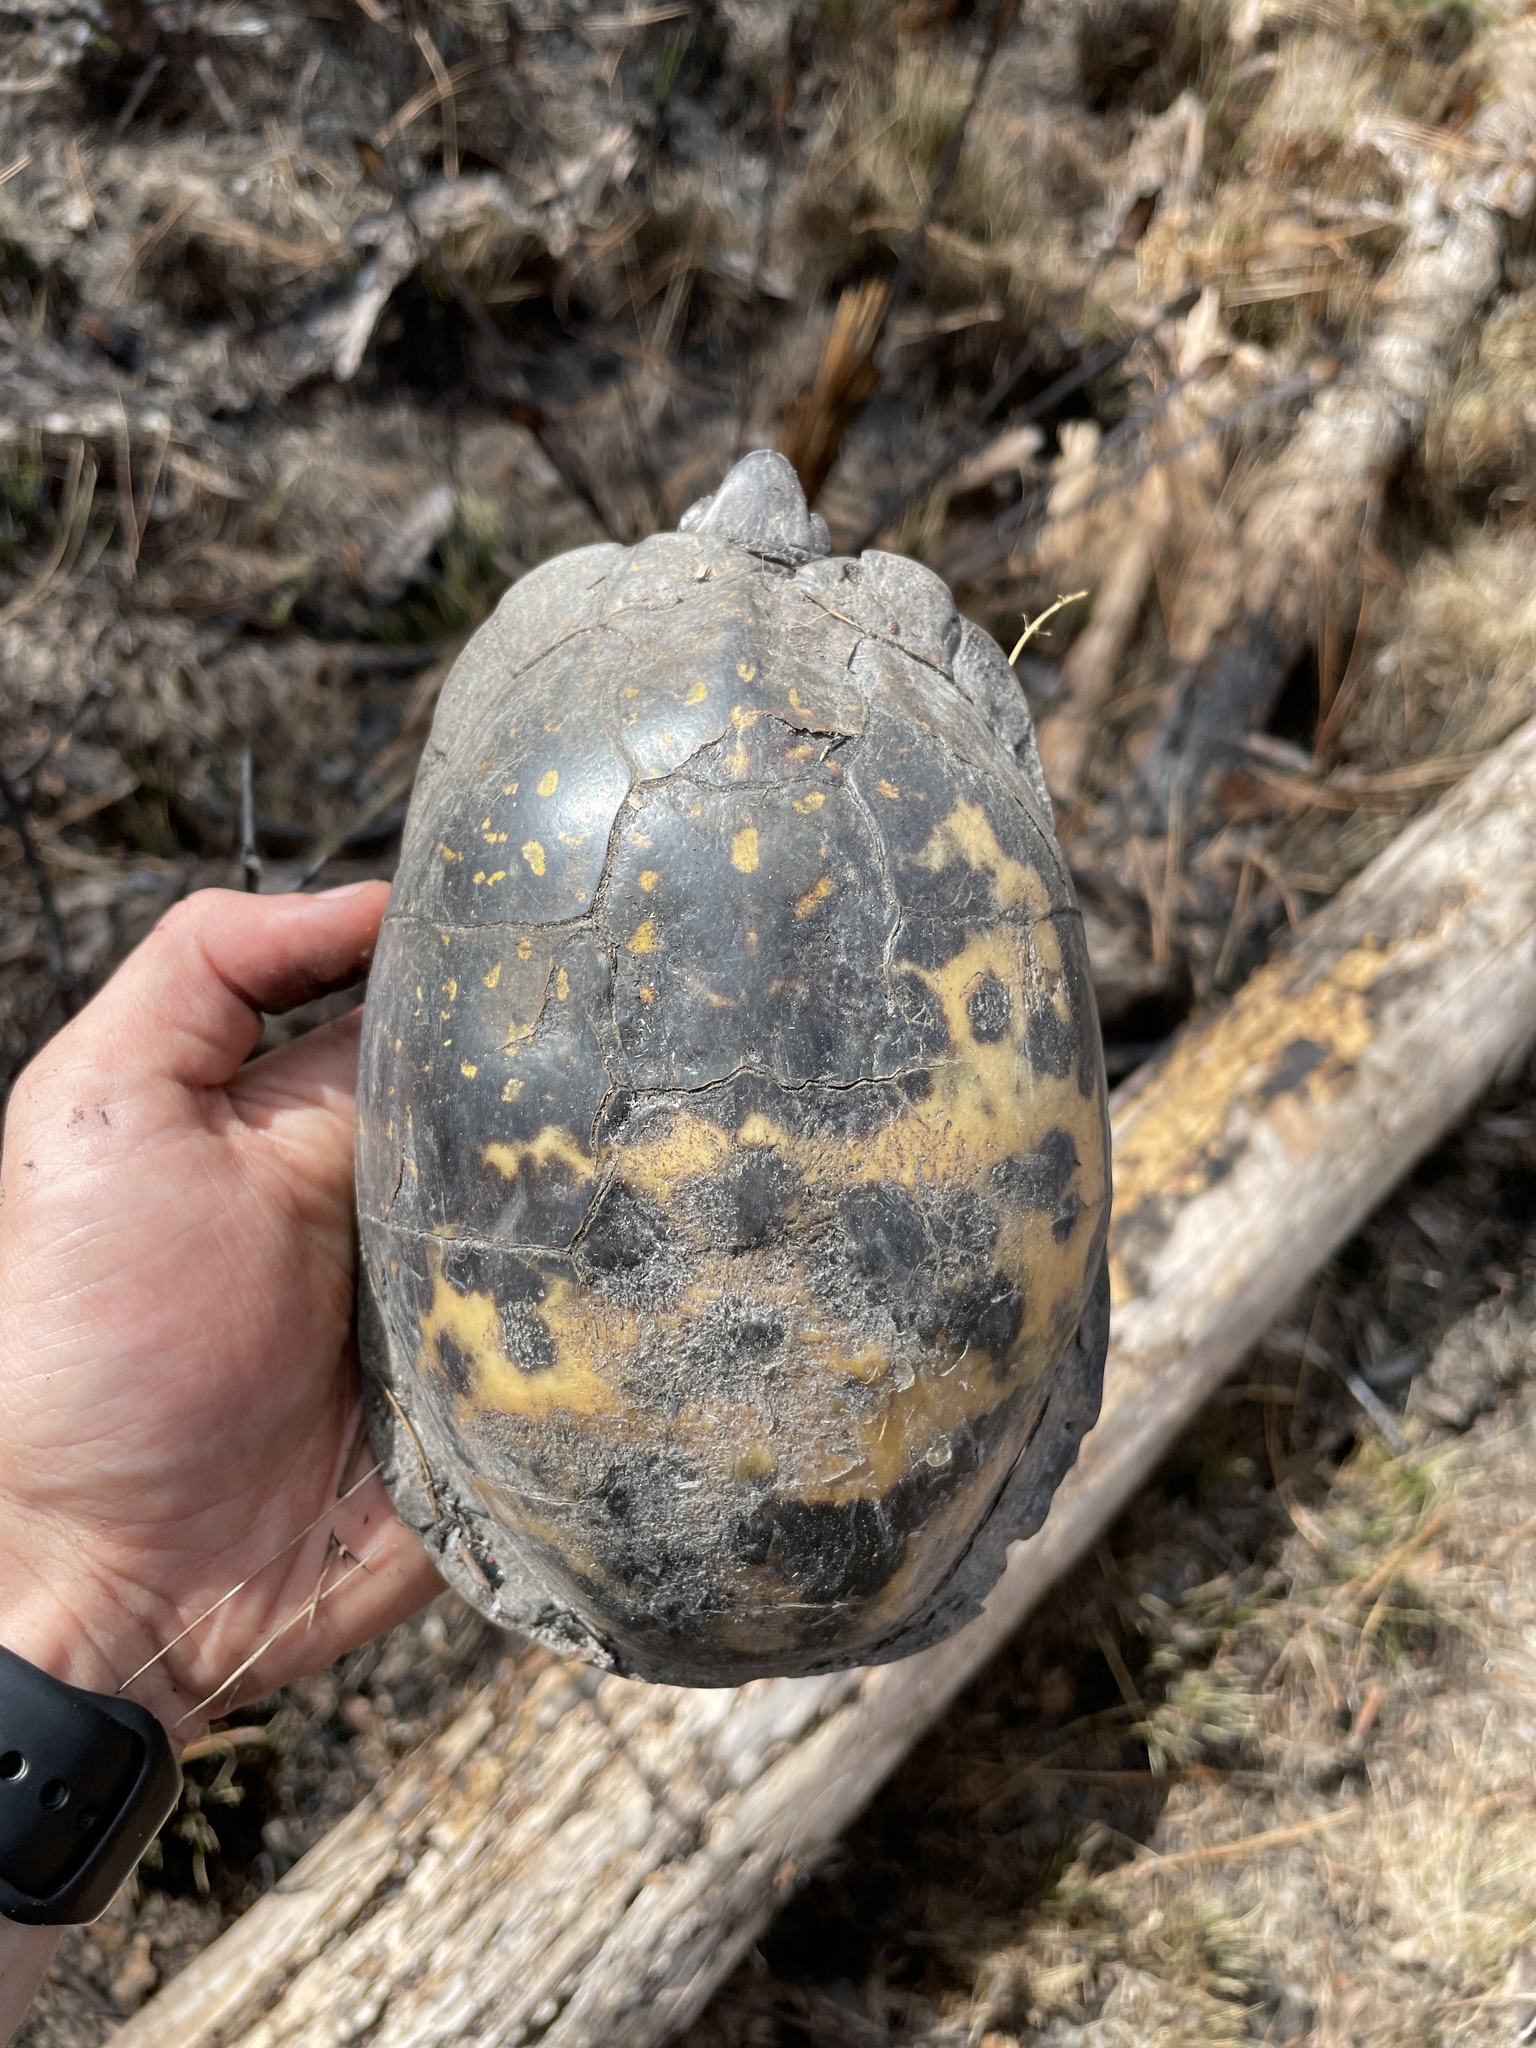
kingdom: Animalia
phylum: Chordata
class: Testudines
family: Emydidae
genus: Terrapene
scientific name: Terrapene carolina
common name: Common box turtle
